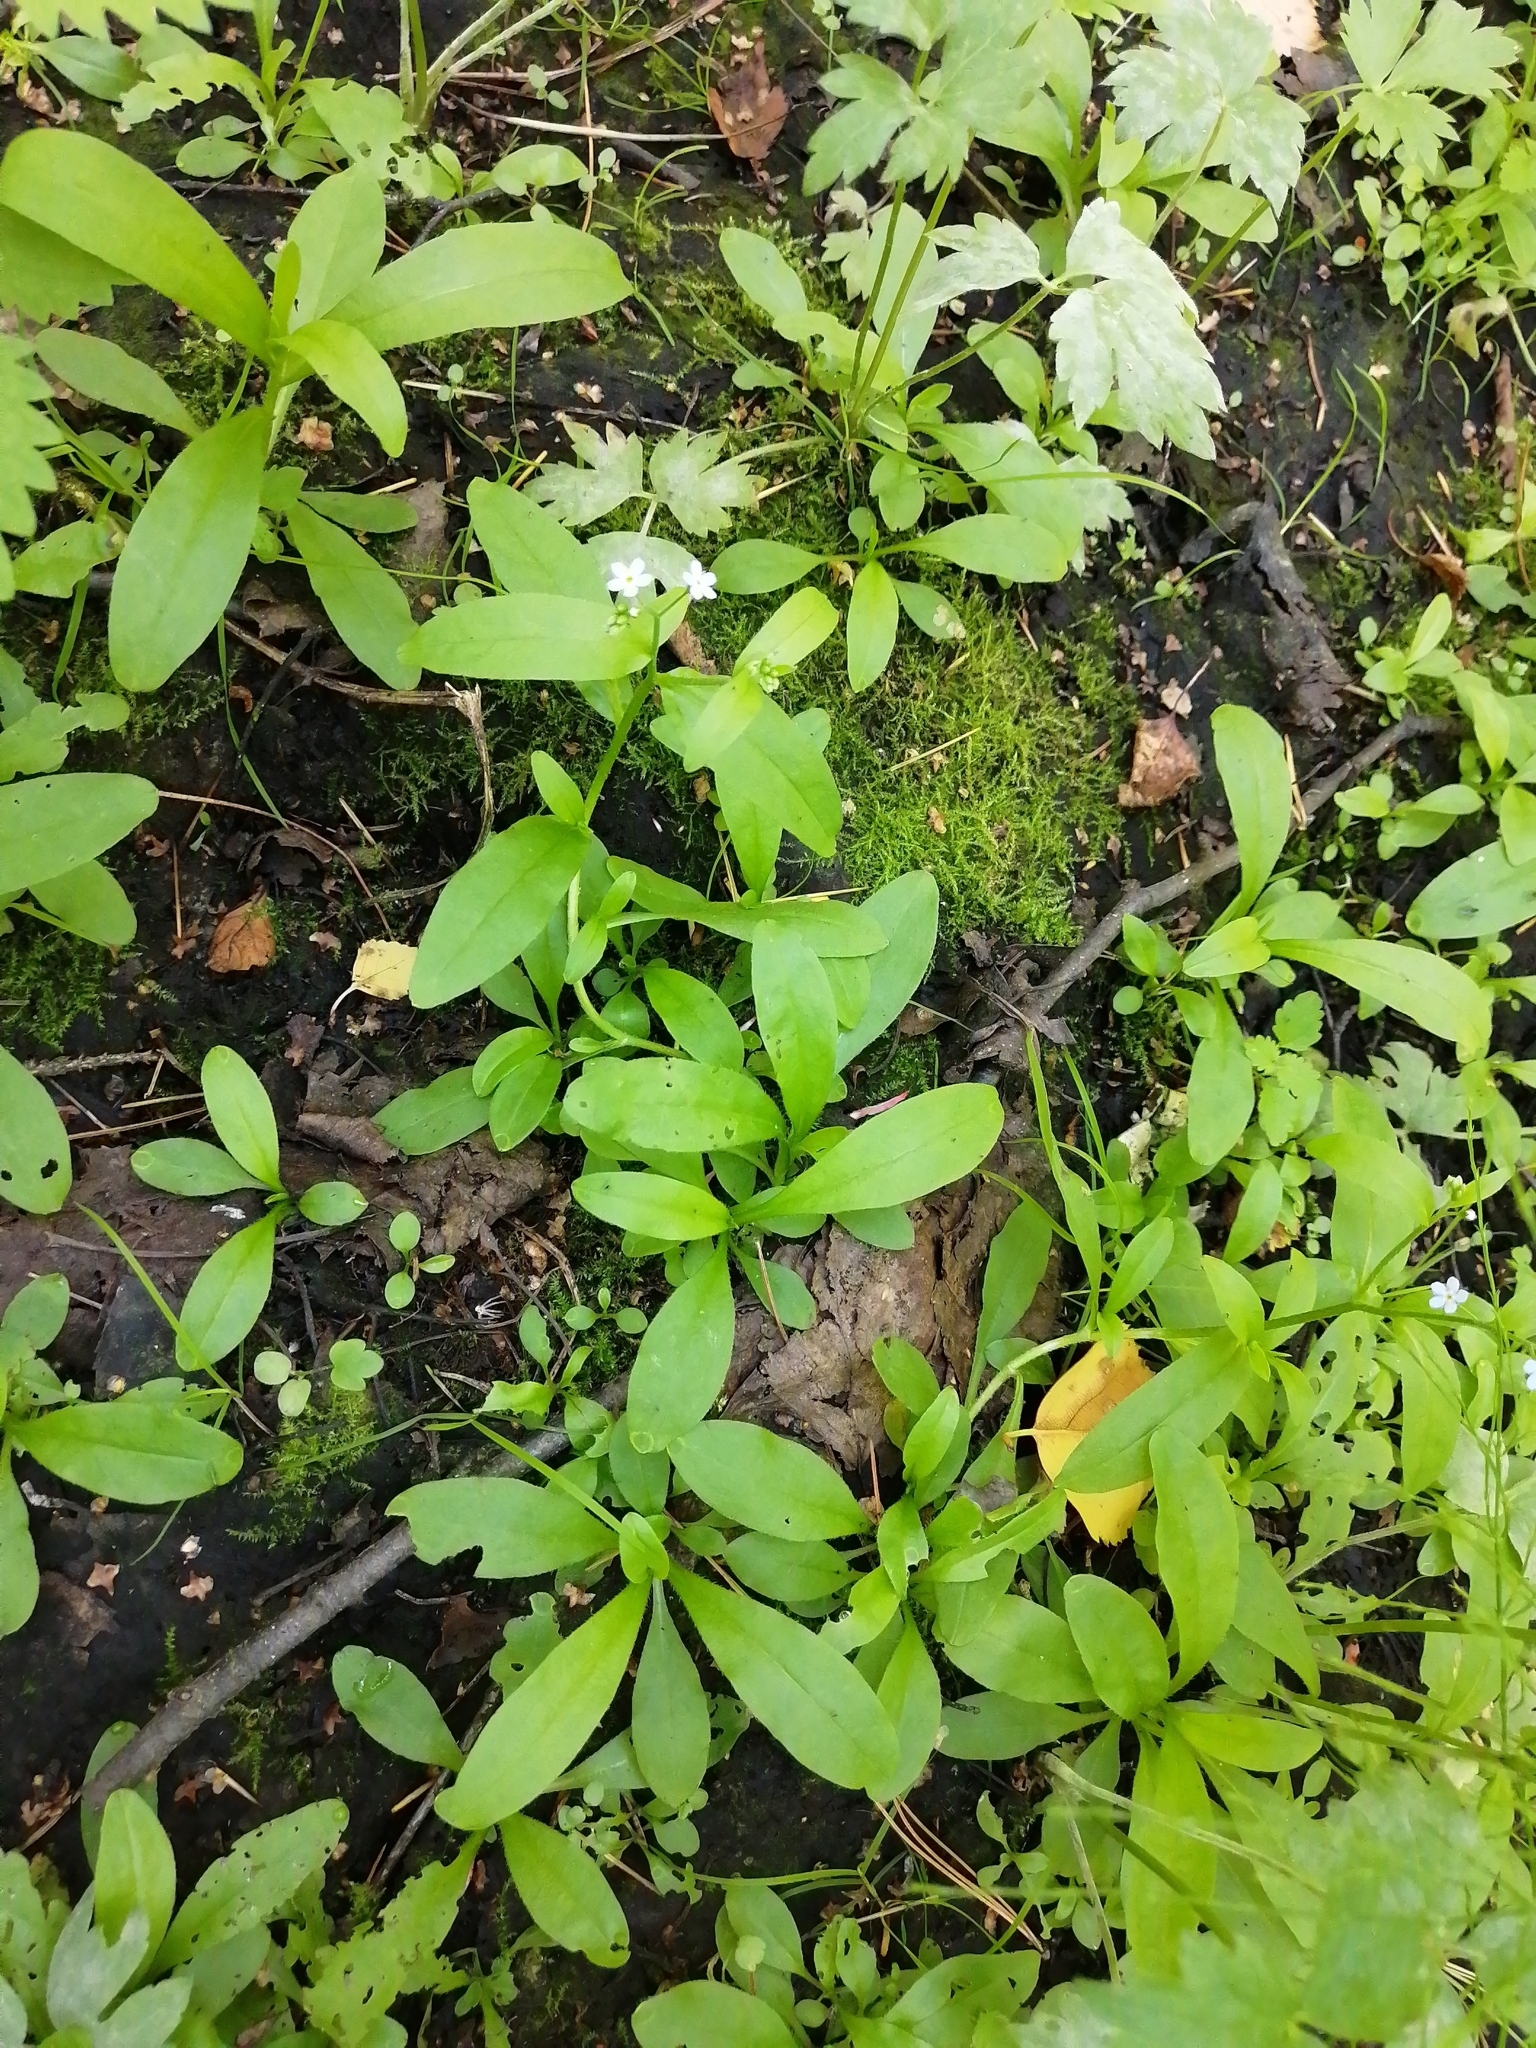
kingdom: Plantae
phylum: Tracheophyta
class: Magnoliopsida
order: Boraginales
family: Boraginaceae
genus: Myosotis
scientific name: Myosotis scorpioides
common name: Water forget-me-not
